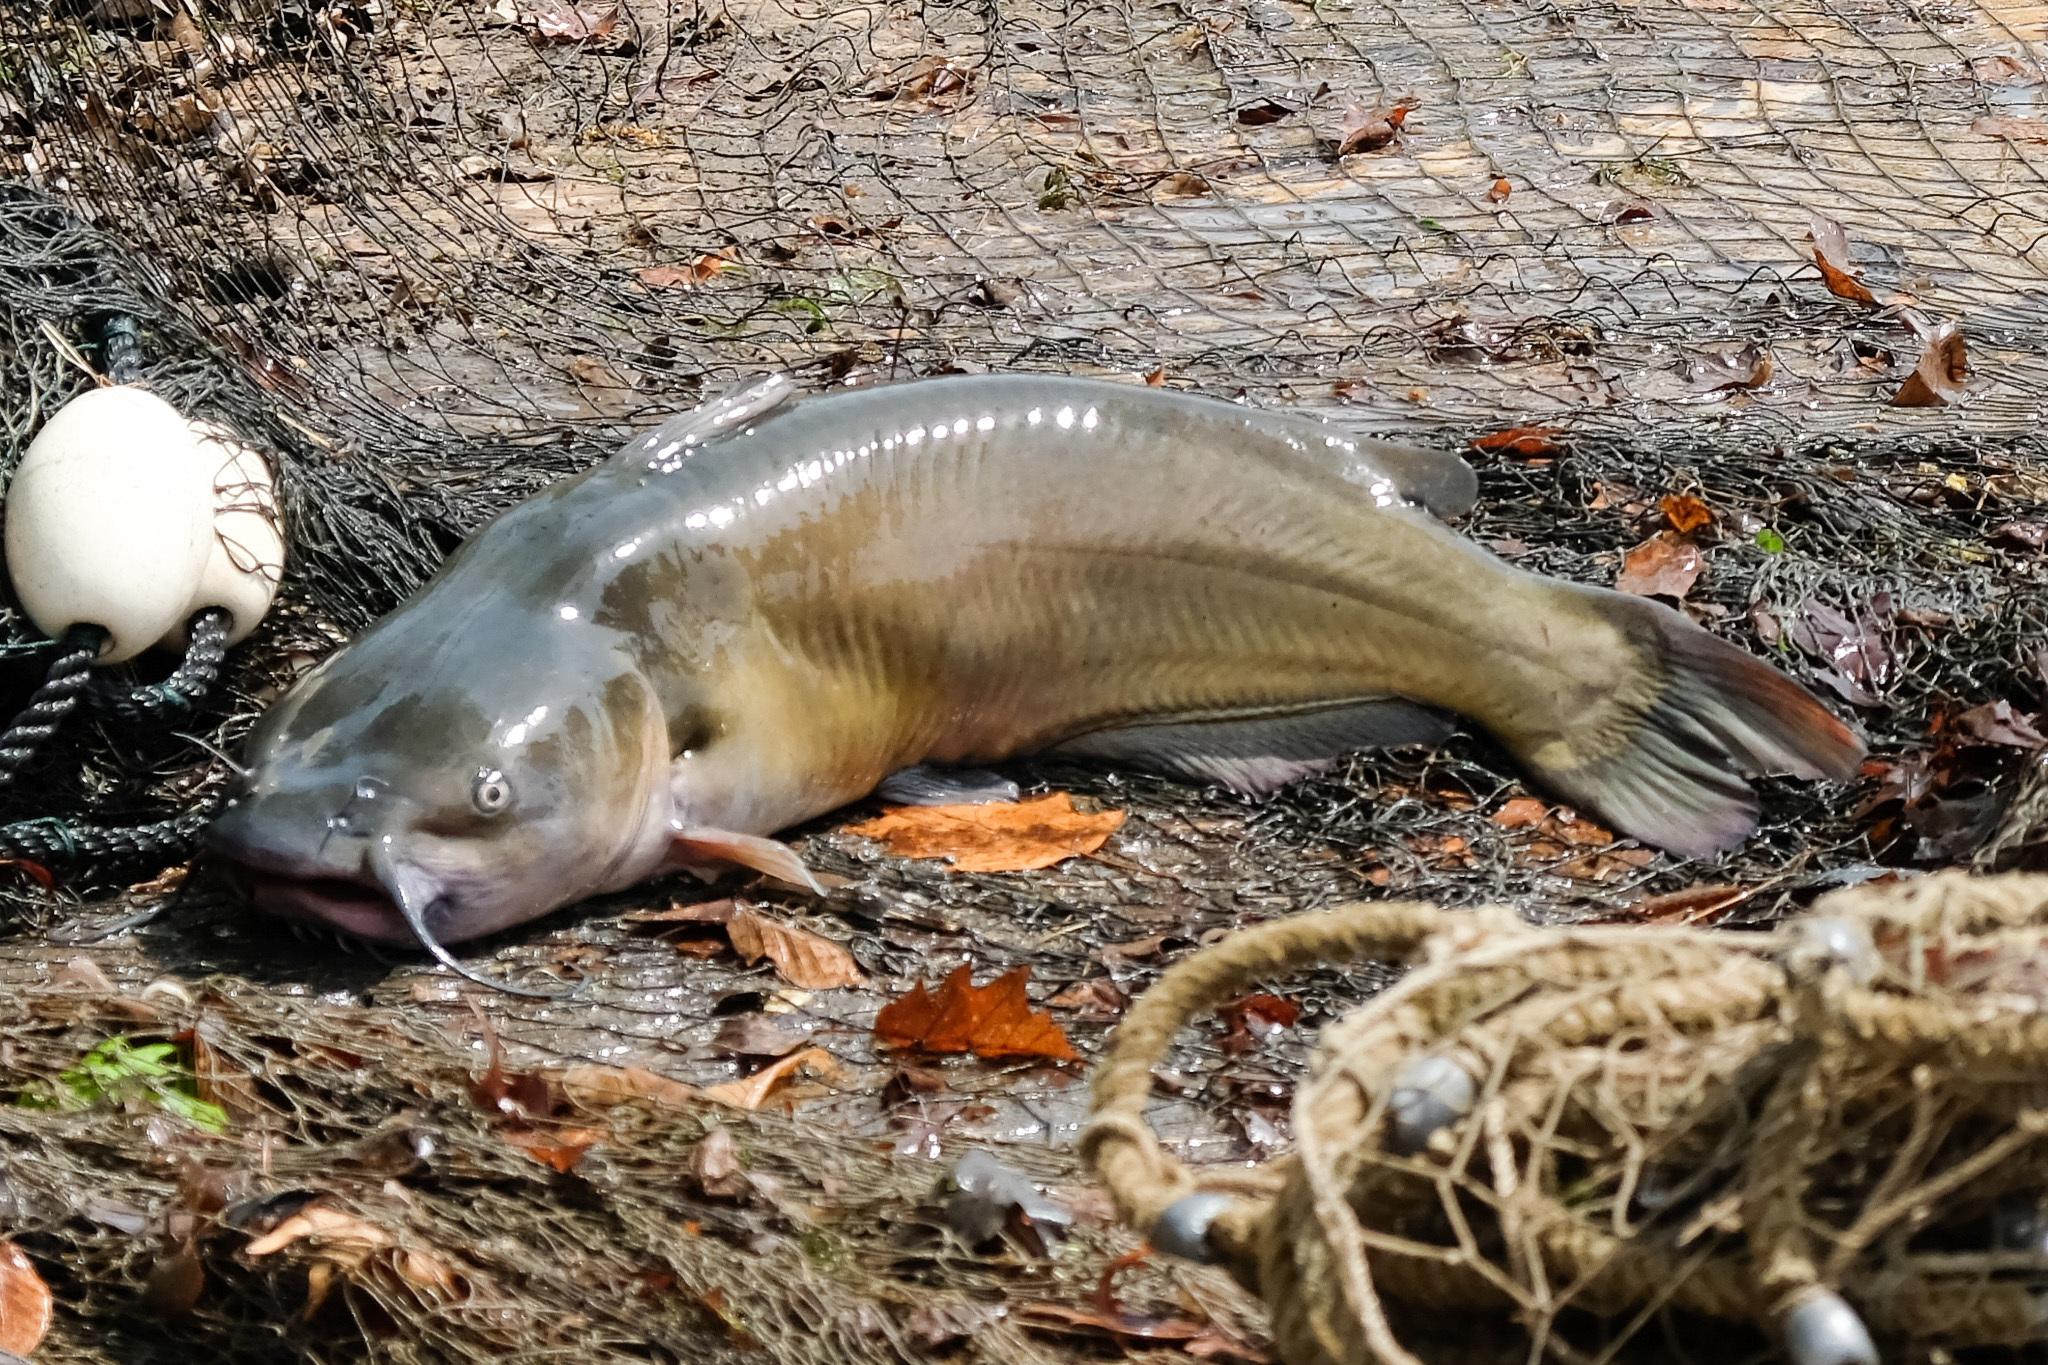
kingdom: Animalia
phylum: Chordata
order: Siluriformes
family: Ictaluridae
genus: Ictalurus
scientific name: Ictalurus punctatus
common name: Channel catfish
